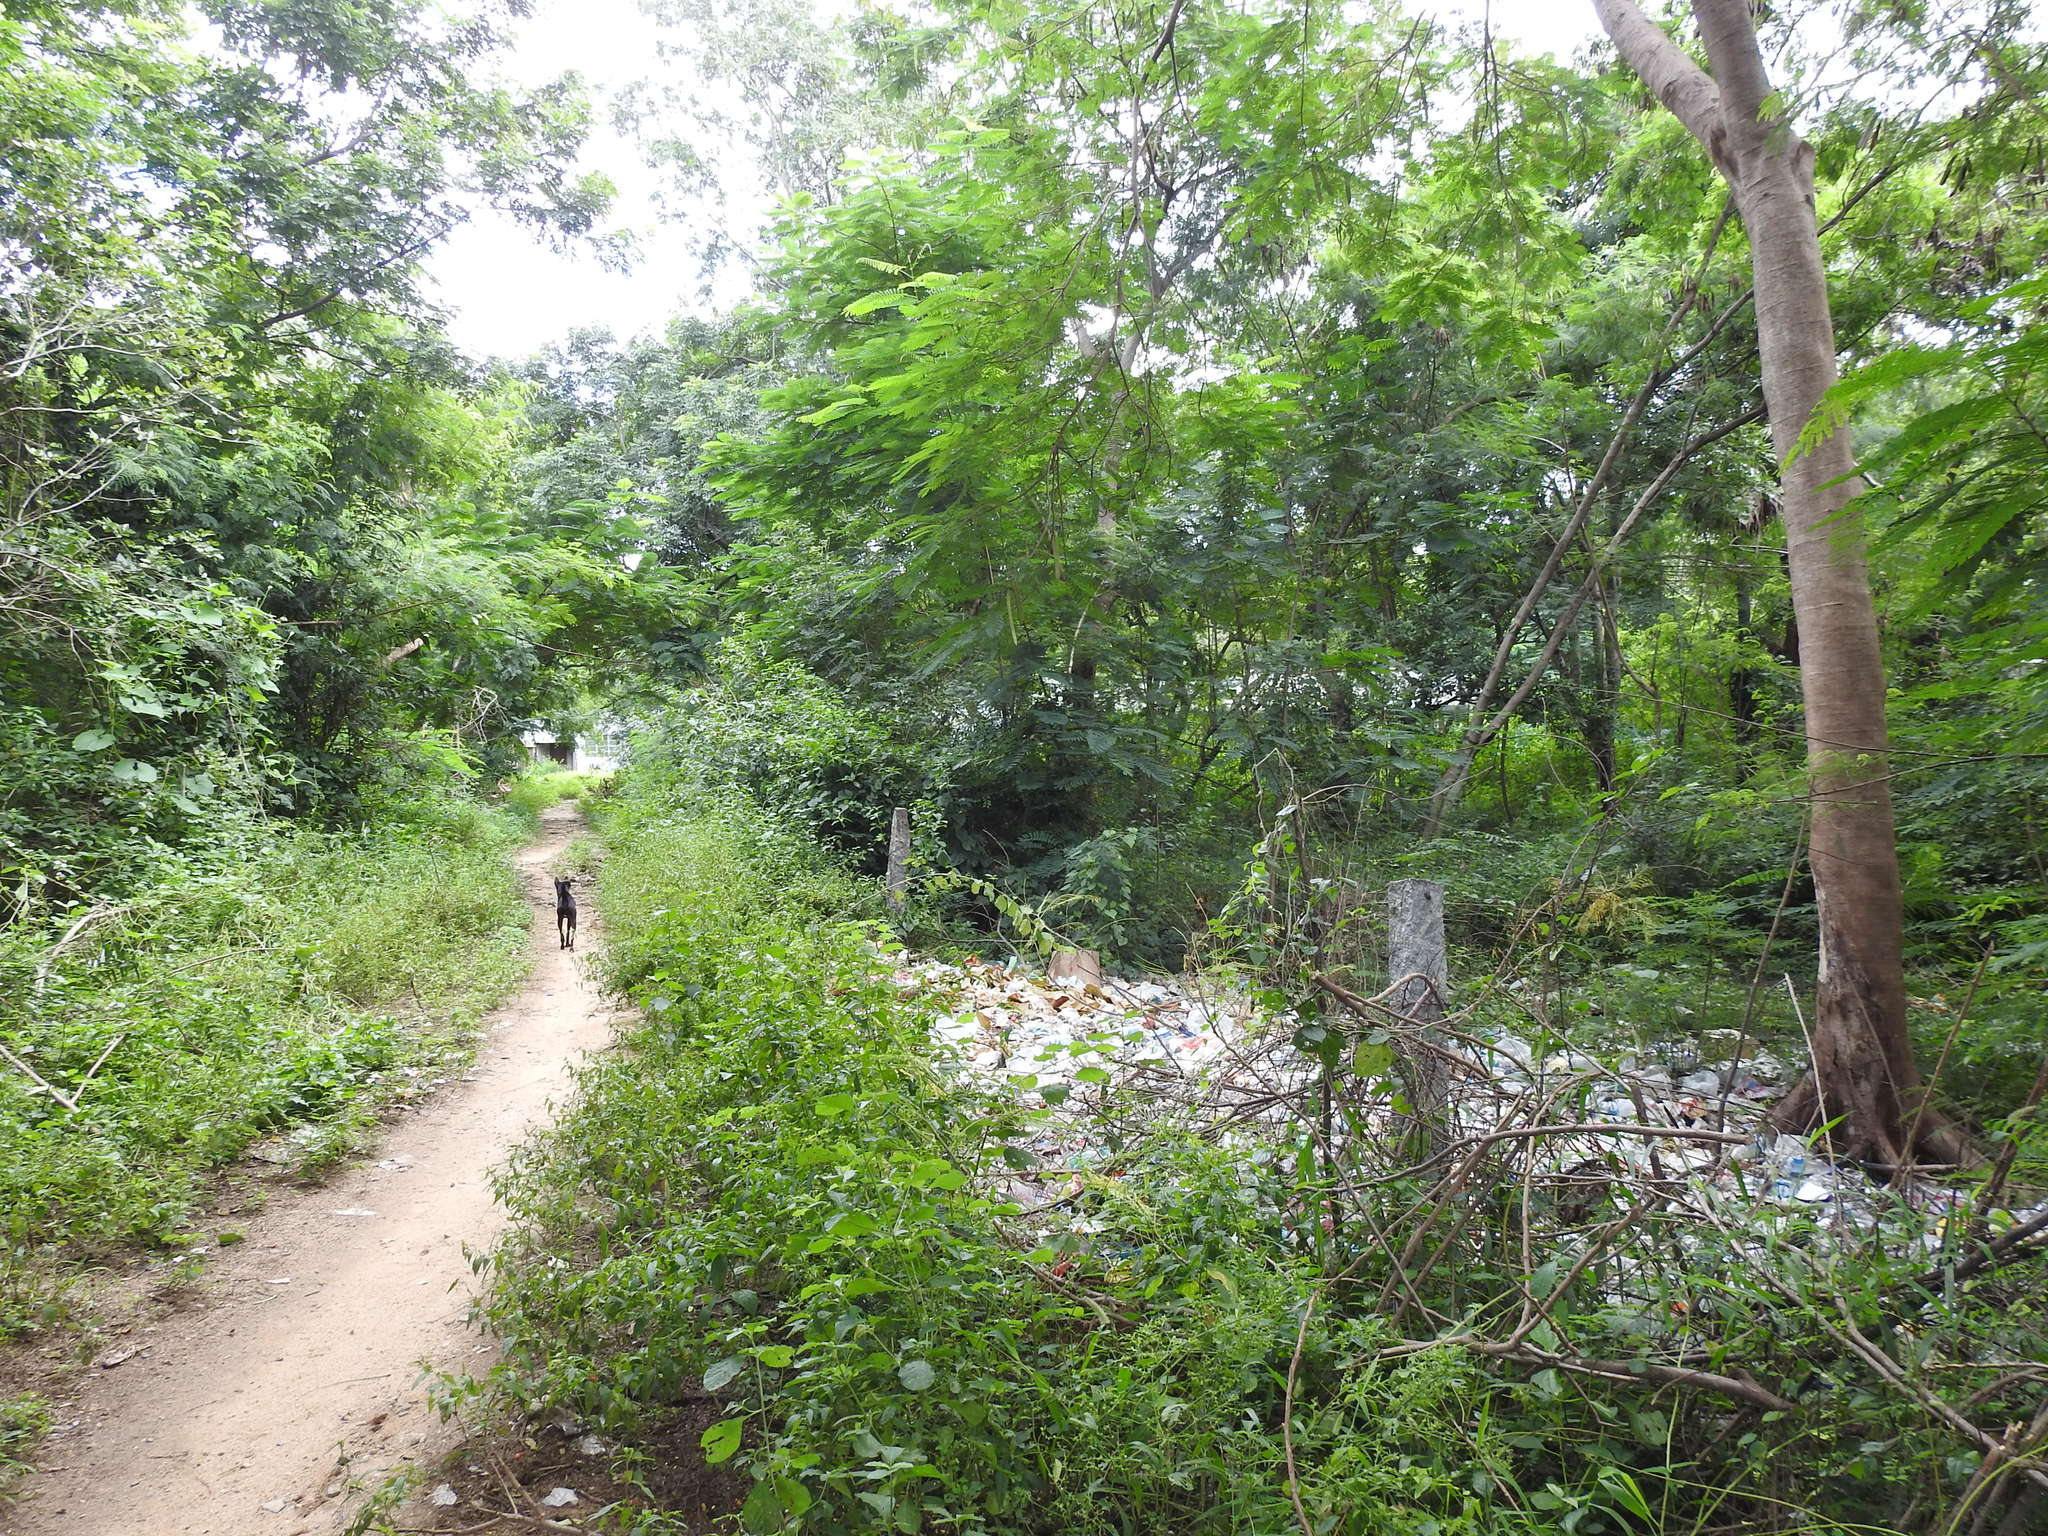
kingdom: Plantae
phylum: Tracheophyta
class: Magnoliopsida
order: Fabales
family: Fabaceae
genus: Delonix
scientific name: Delonix regia
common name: Royal poinciana
